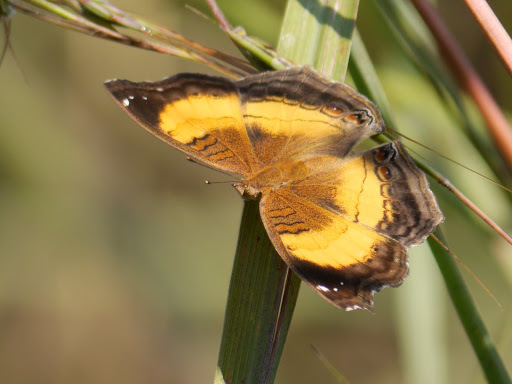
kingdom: Animalia
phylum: Arthropoda
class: Insecta
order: Lepidoptera
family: Nymphalidae
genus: Junonia
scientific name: Junonia terea
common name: Soldier pansy
